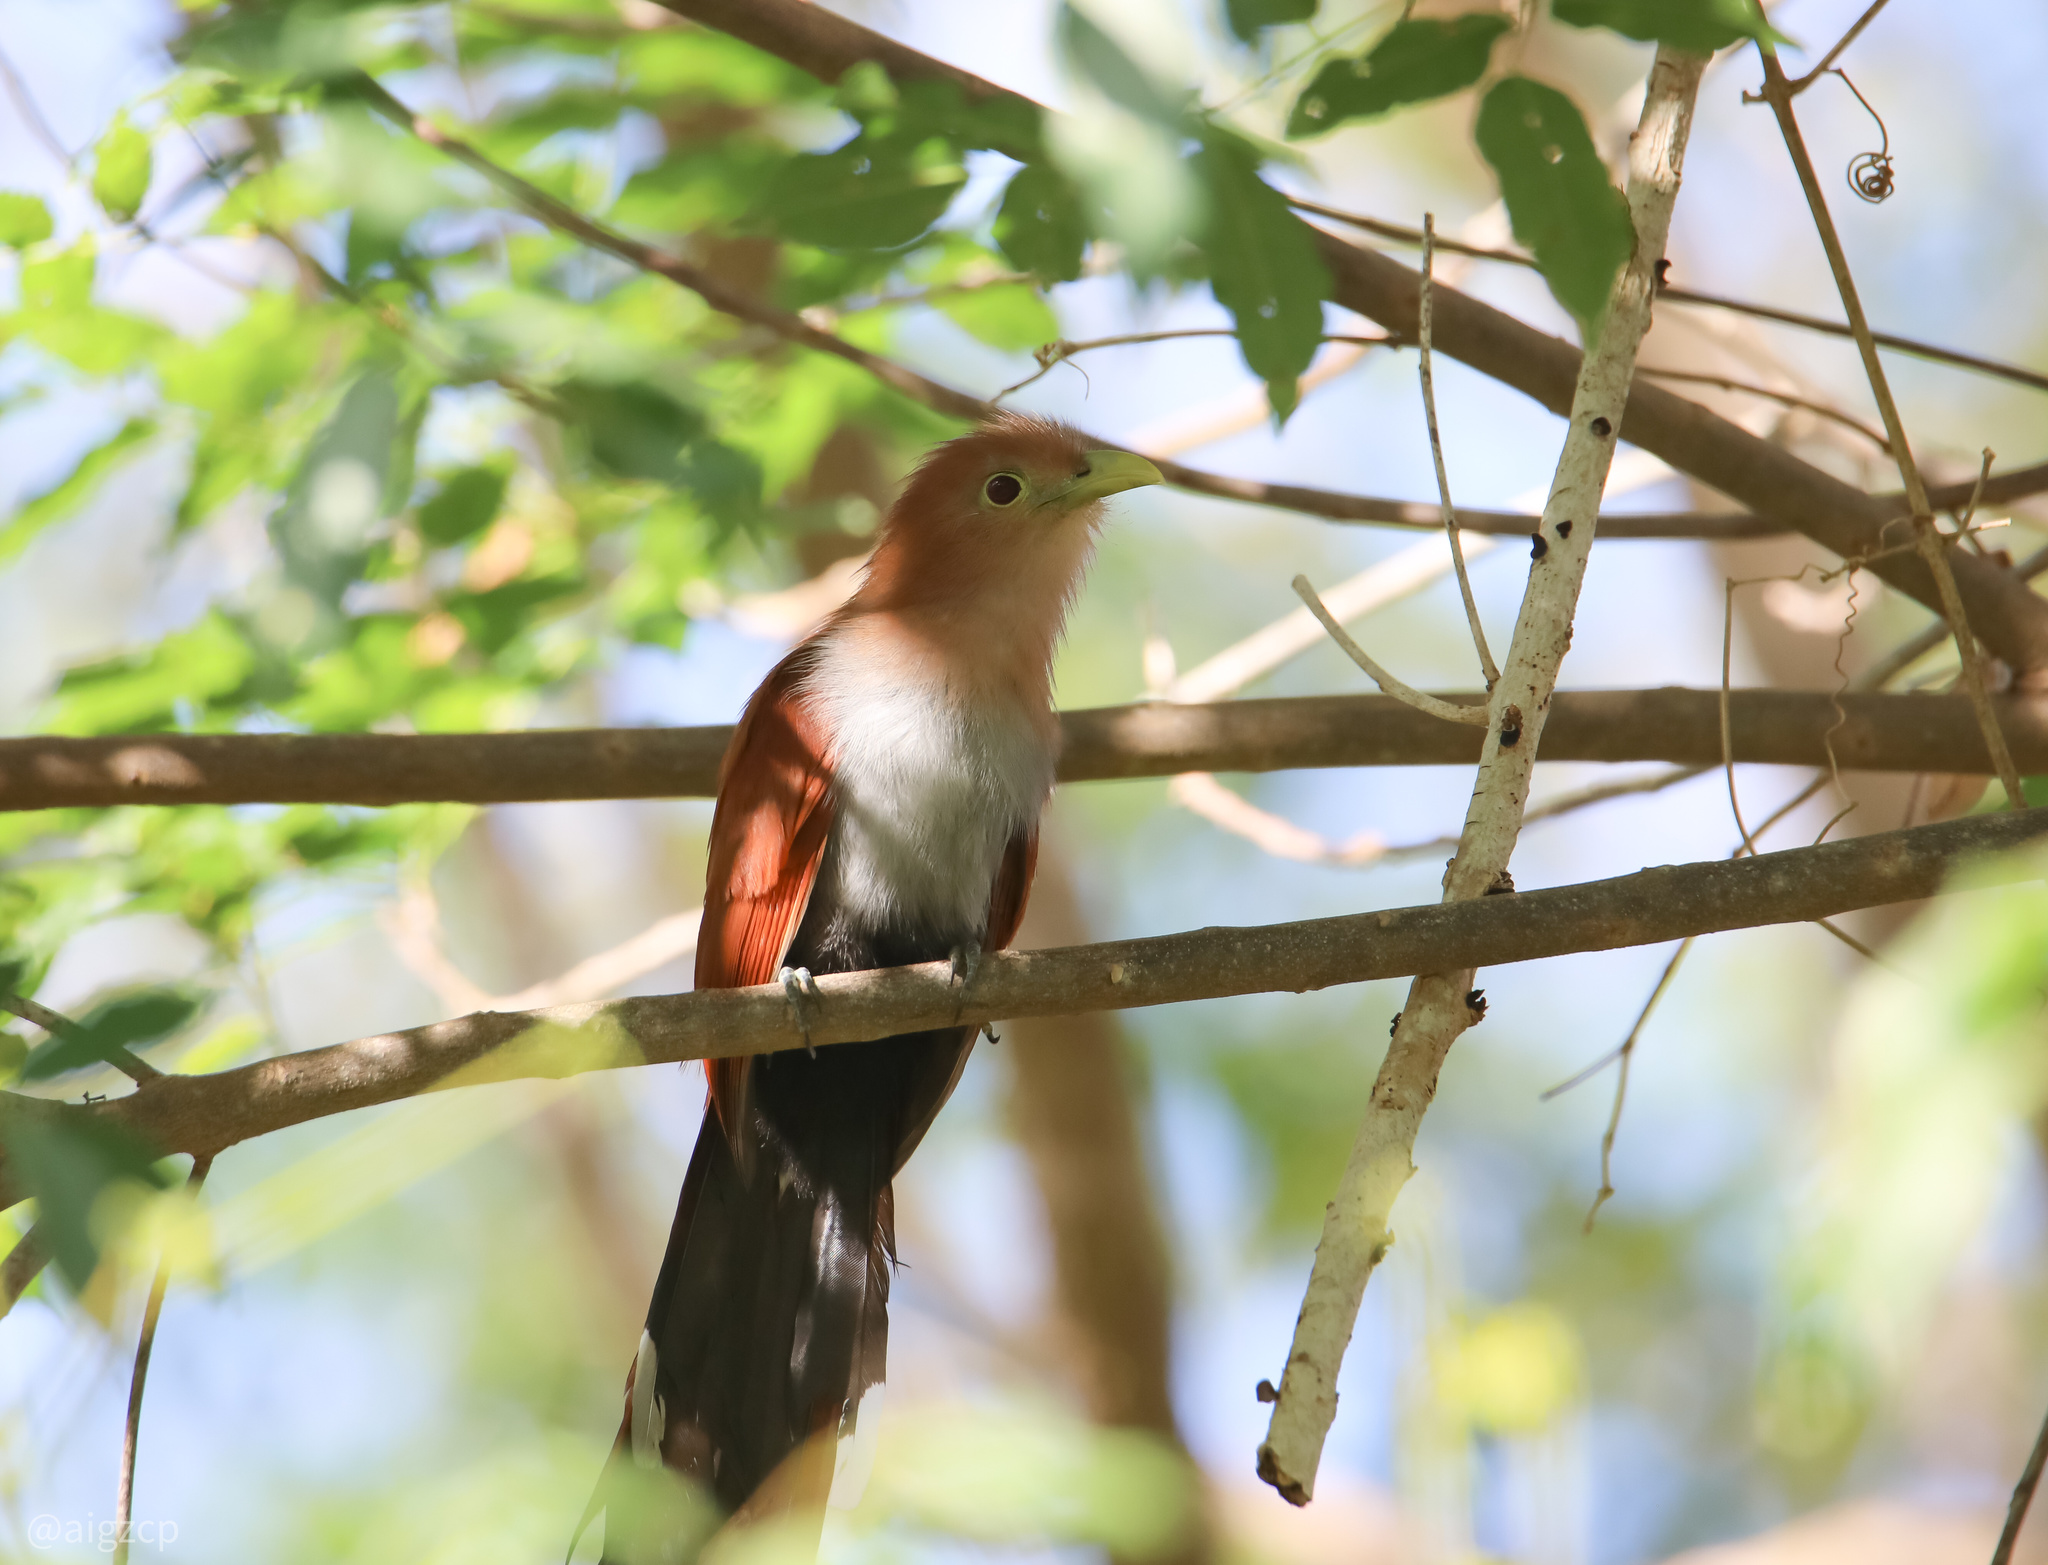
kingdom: Animalia
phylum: Chordata
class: Aves
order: Cuculiformes
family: Cuculidae
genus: Piaya
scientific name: Piaya cayana
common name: Squirrel cuckoo
